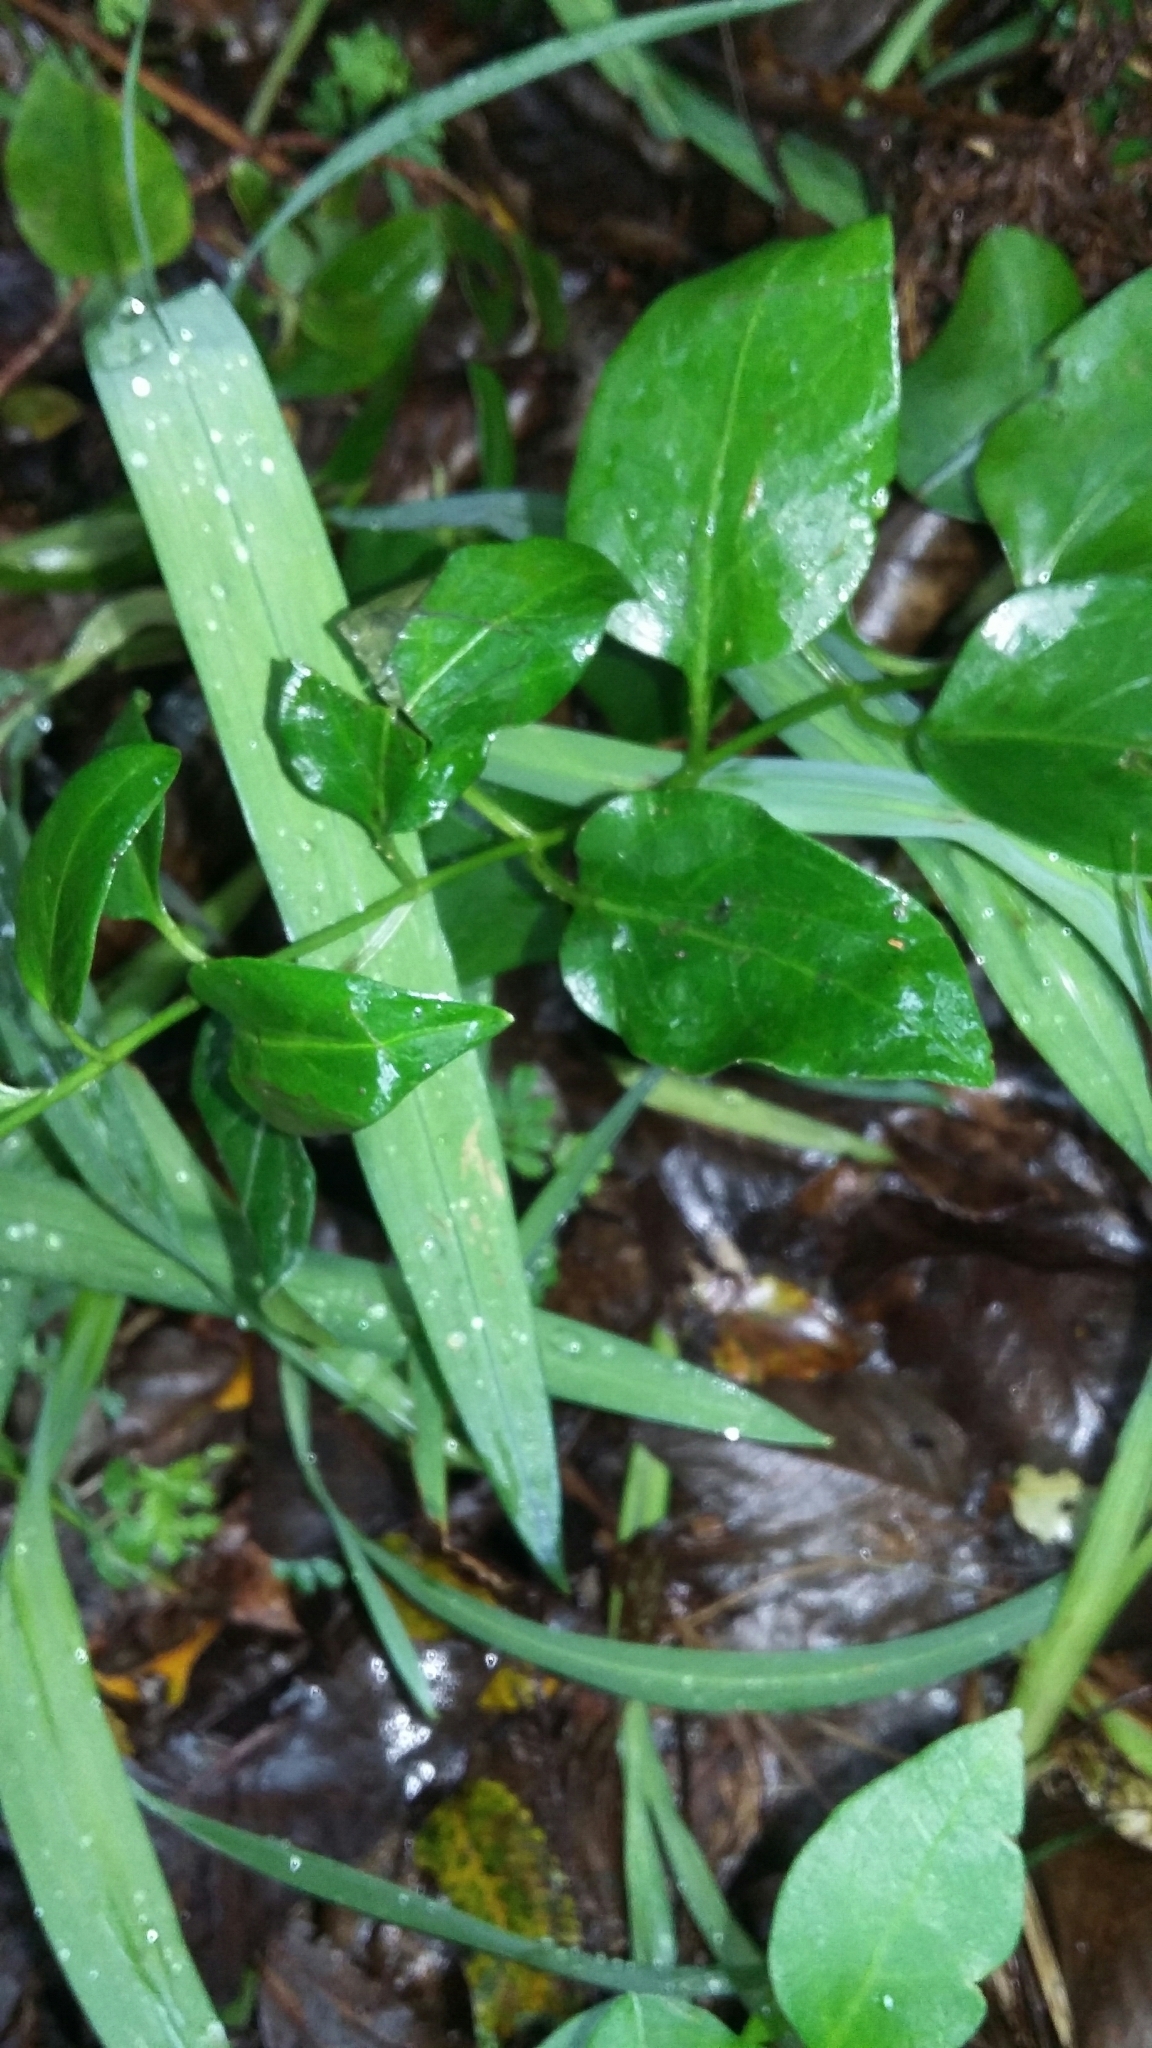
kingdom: Plantae
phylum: Tracheophyta
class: Magnoliopsida
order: Gentianales
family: Apocynaceae
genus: Vinca
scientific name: Vinca major
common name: Greater periwinkle
